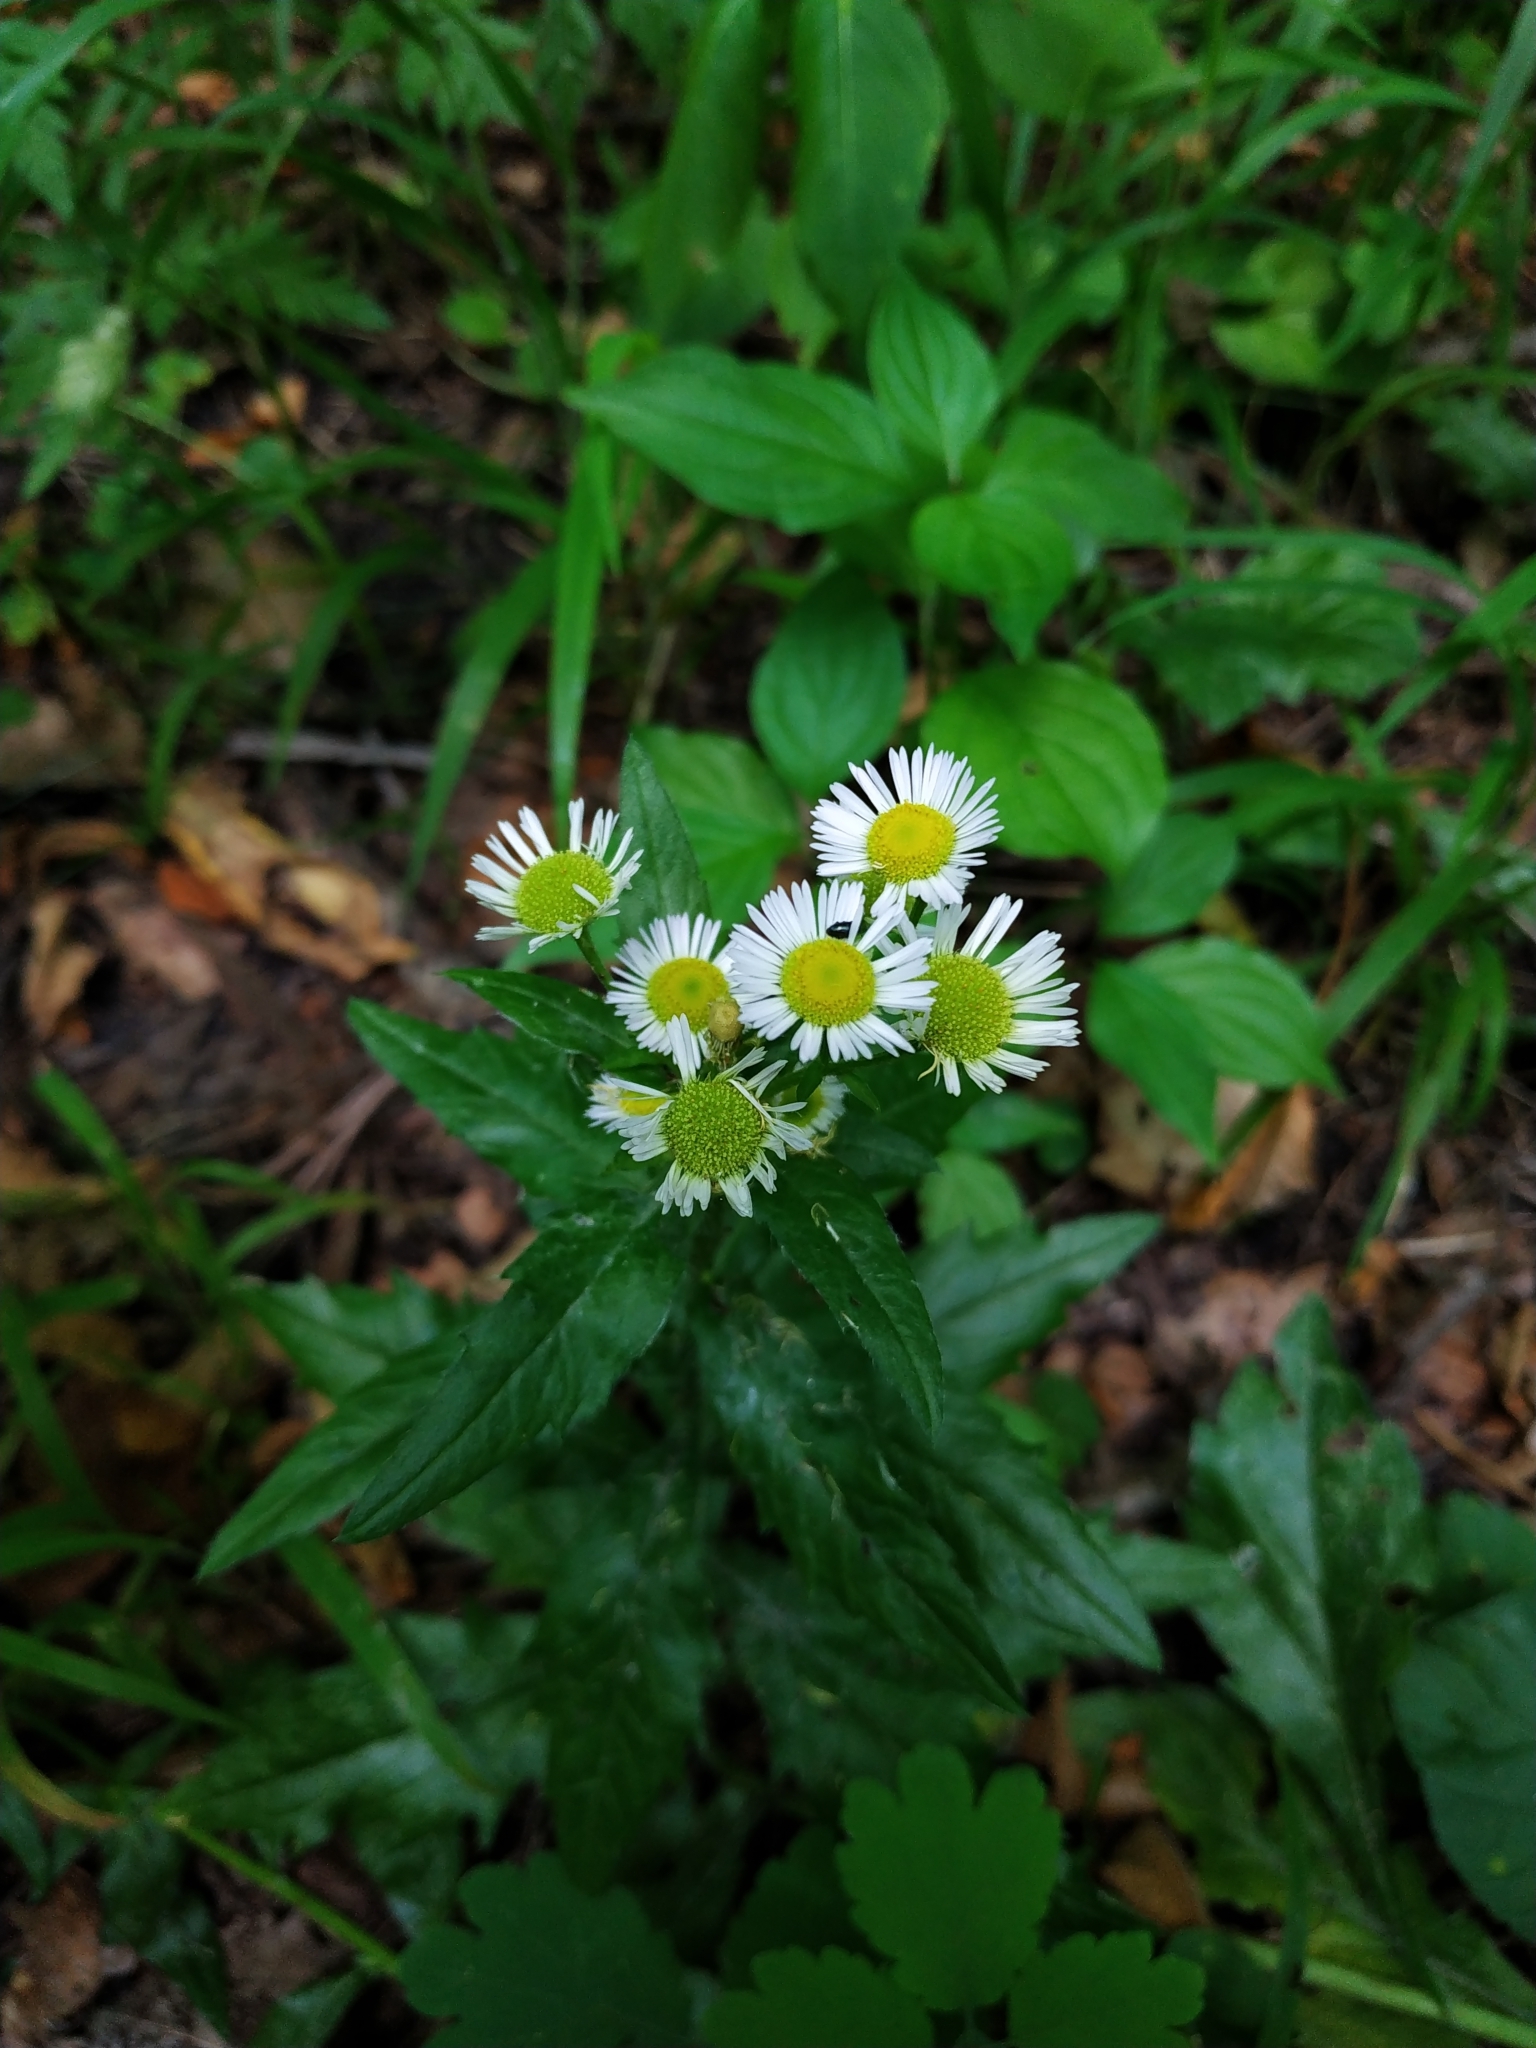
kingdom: Plantae
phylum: Tracheophyta
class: Magnoliopsida
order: Asterales
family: Asteraceae
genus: Erigeron
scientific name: Erigeron annuus
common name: Tall fleabane
